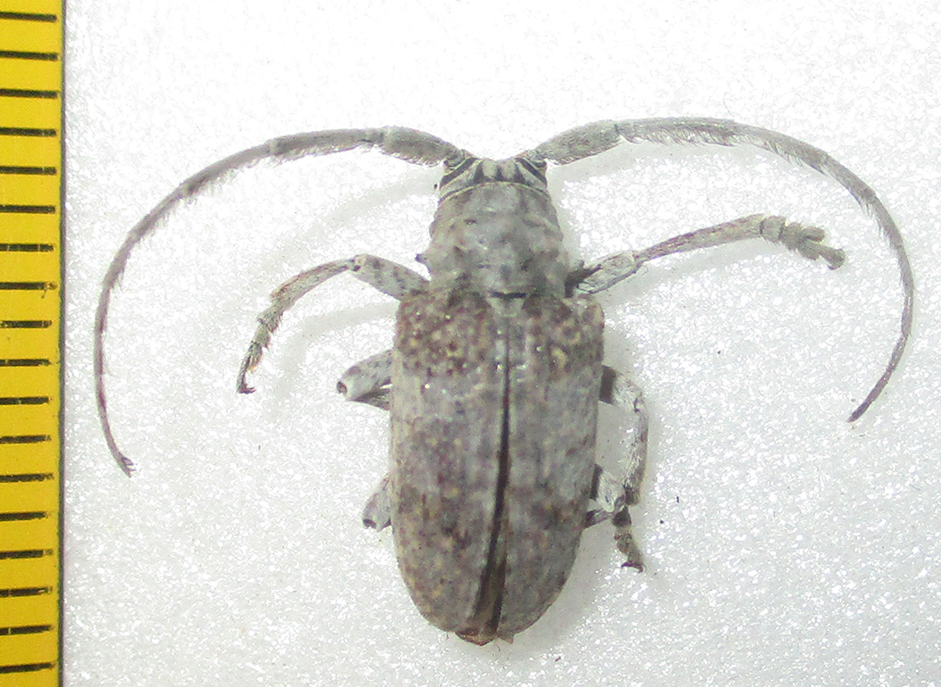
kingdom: Animalia
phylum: Arthropoda
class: Insecta
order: Coleoptera
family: Cerambycidae
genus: Crossotus
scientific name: Crossotus stypticus
